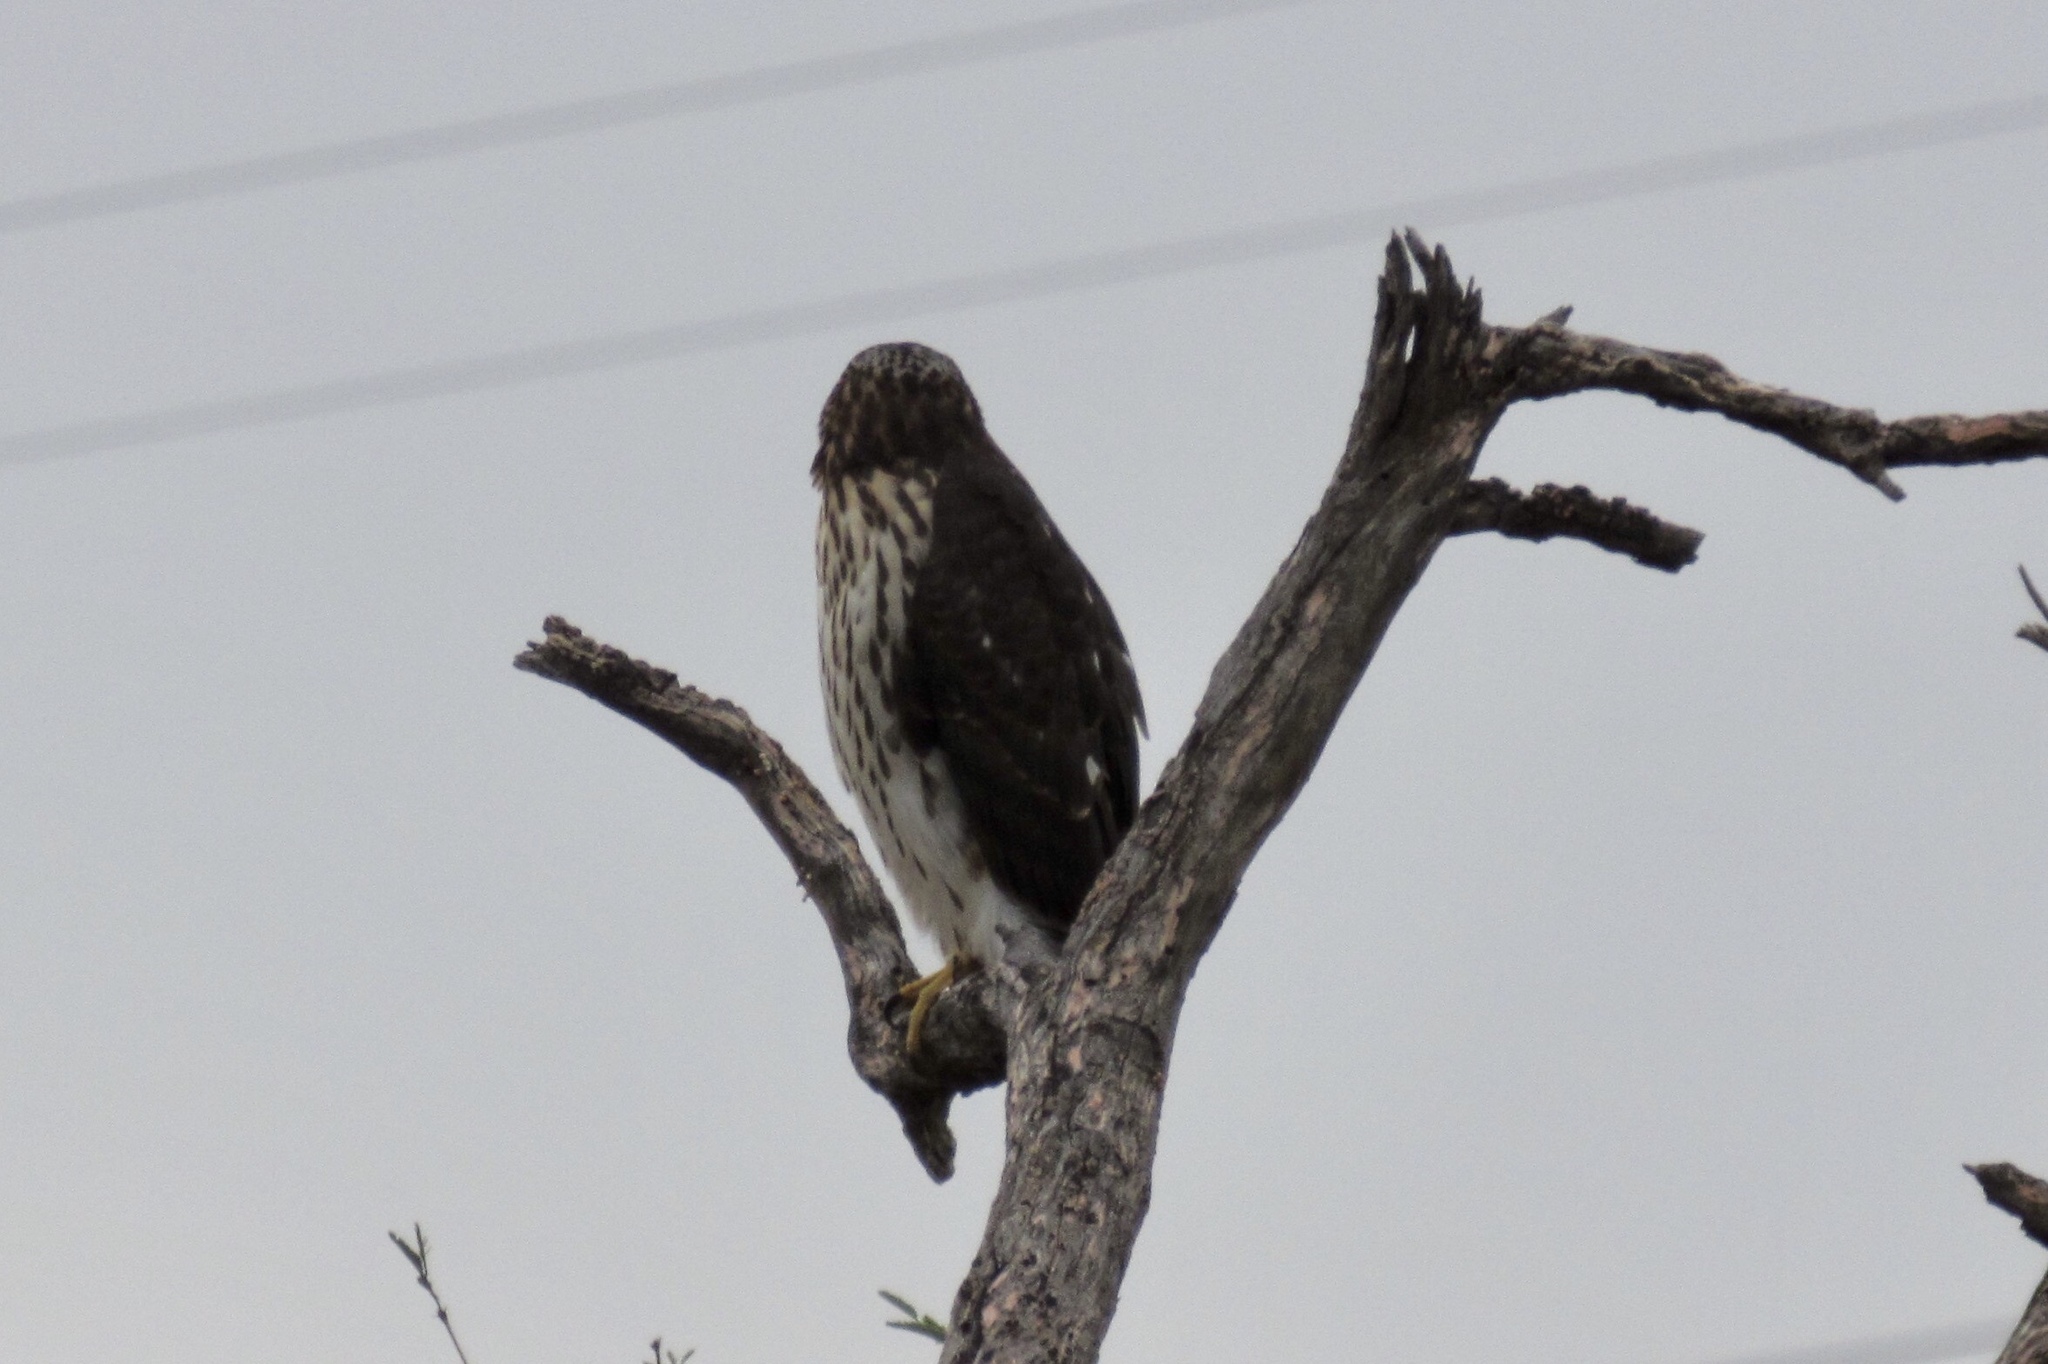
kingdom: Animalia
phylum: Chordata
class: Aves
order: Accipitriformes
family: Accipitridae
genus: Accipiter
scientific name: Accipiter cooperii
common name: Cooper's hawk
